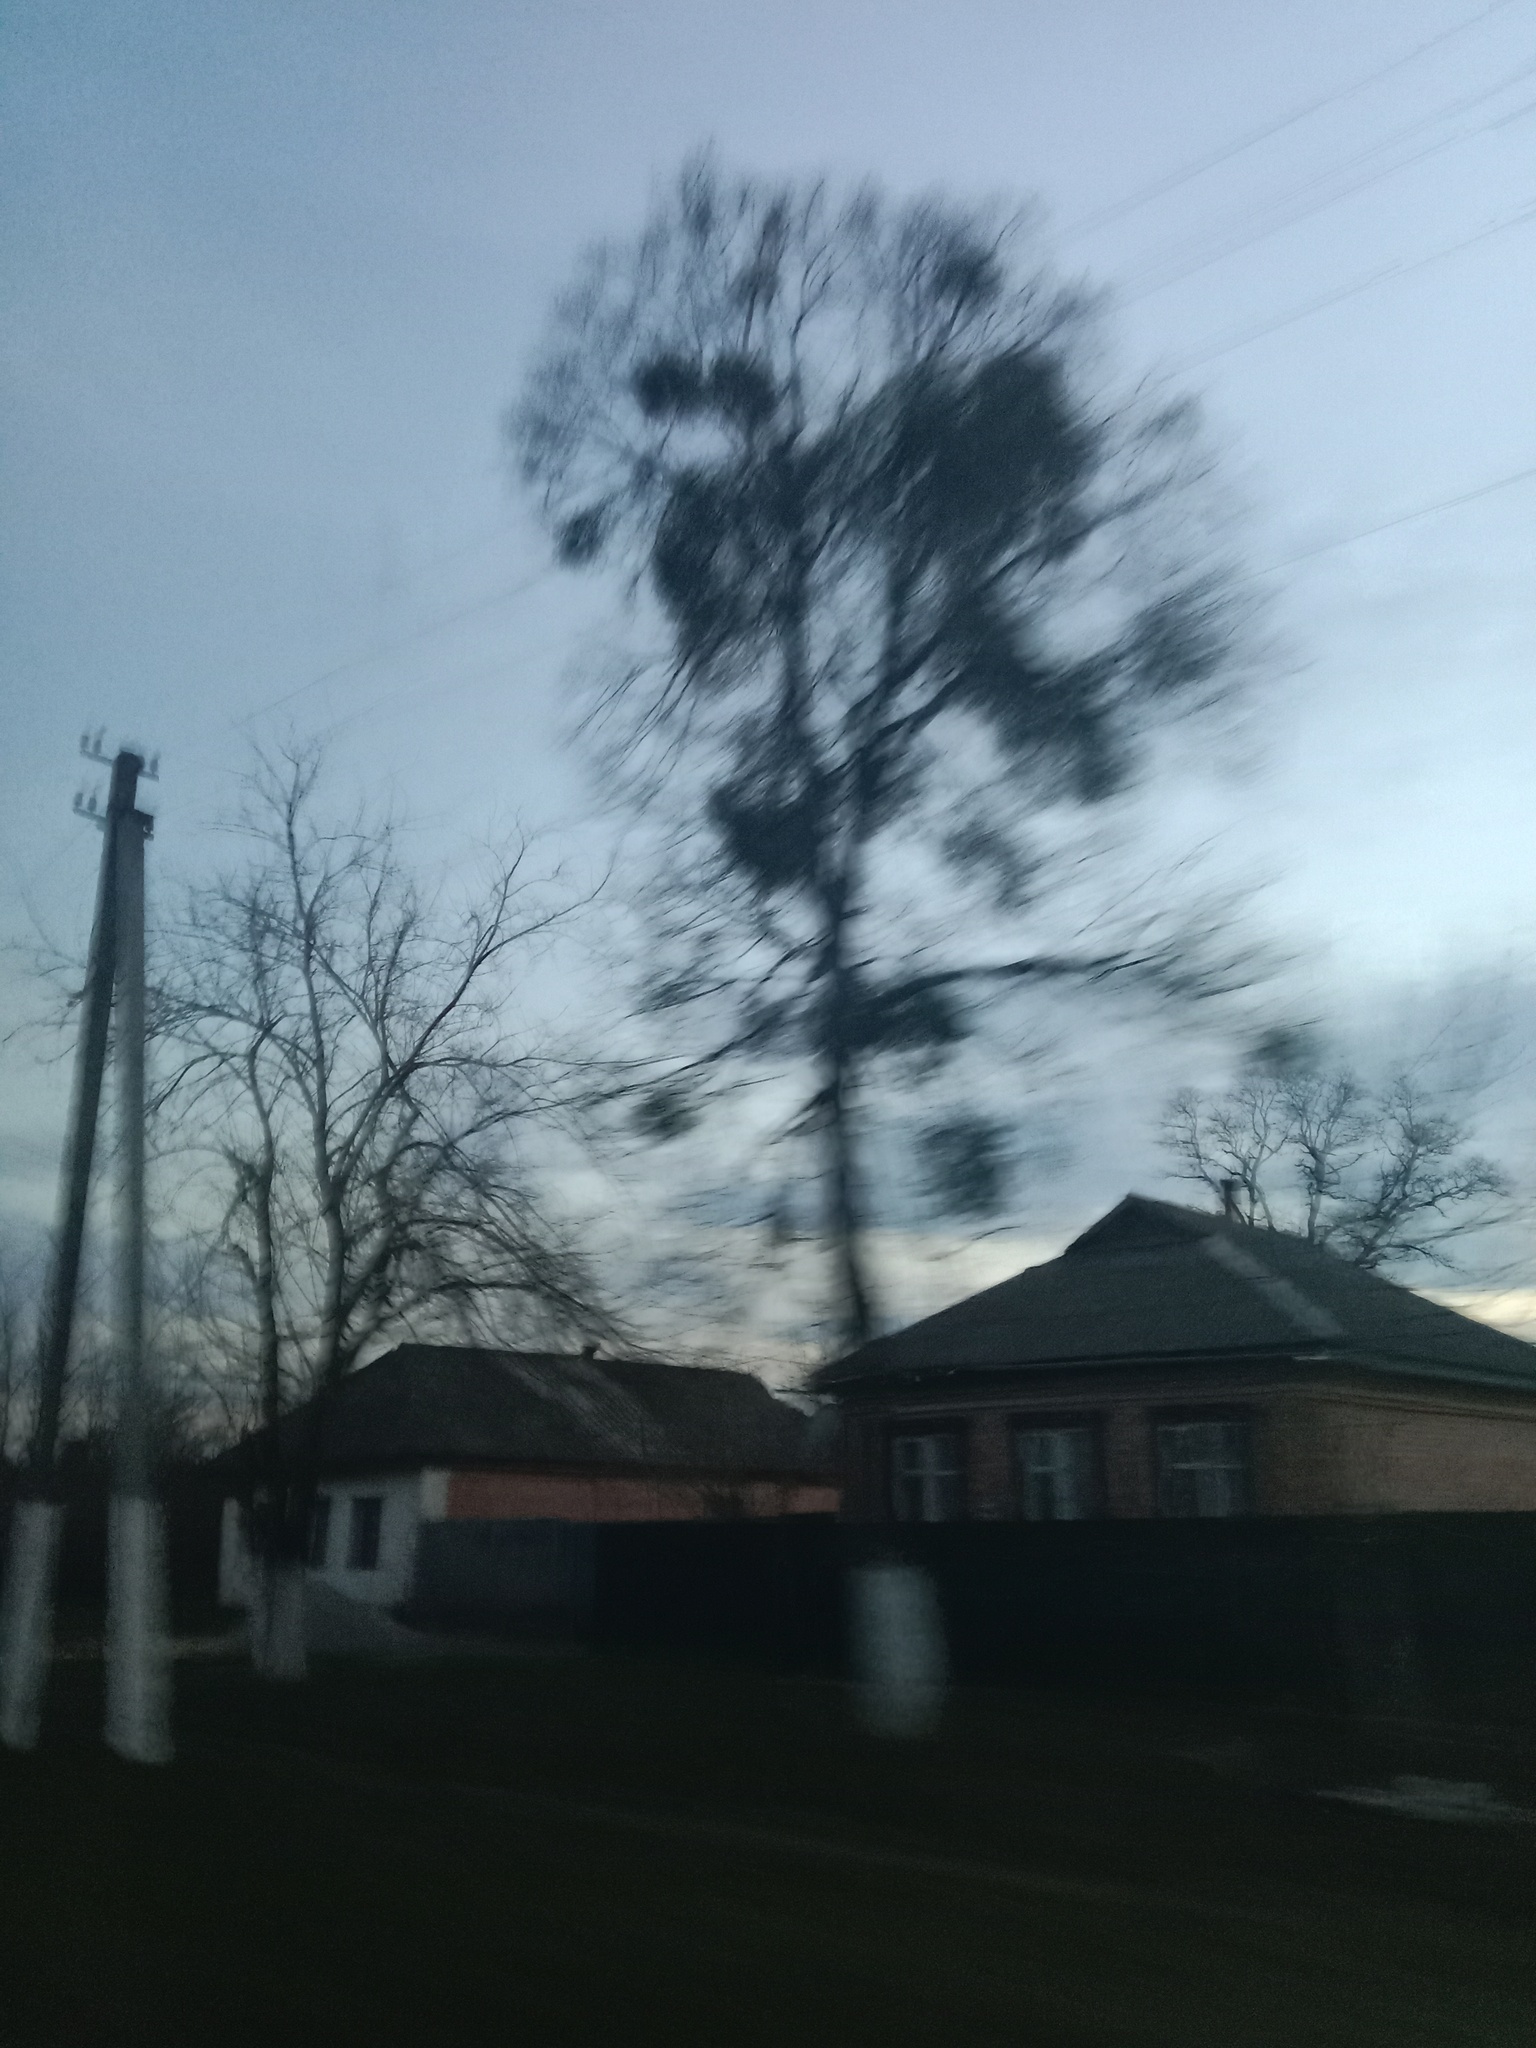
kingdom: Plantae
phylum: Tracheophyta
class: Magnoliopsida
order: Santalales
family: Viscaceae
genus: Viscum
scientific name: Viscum album
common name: Mistletoe
